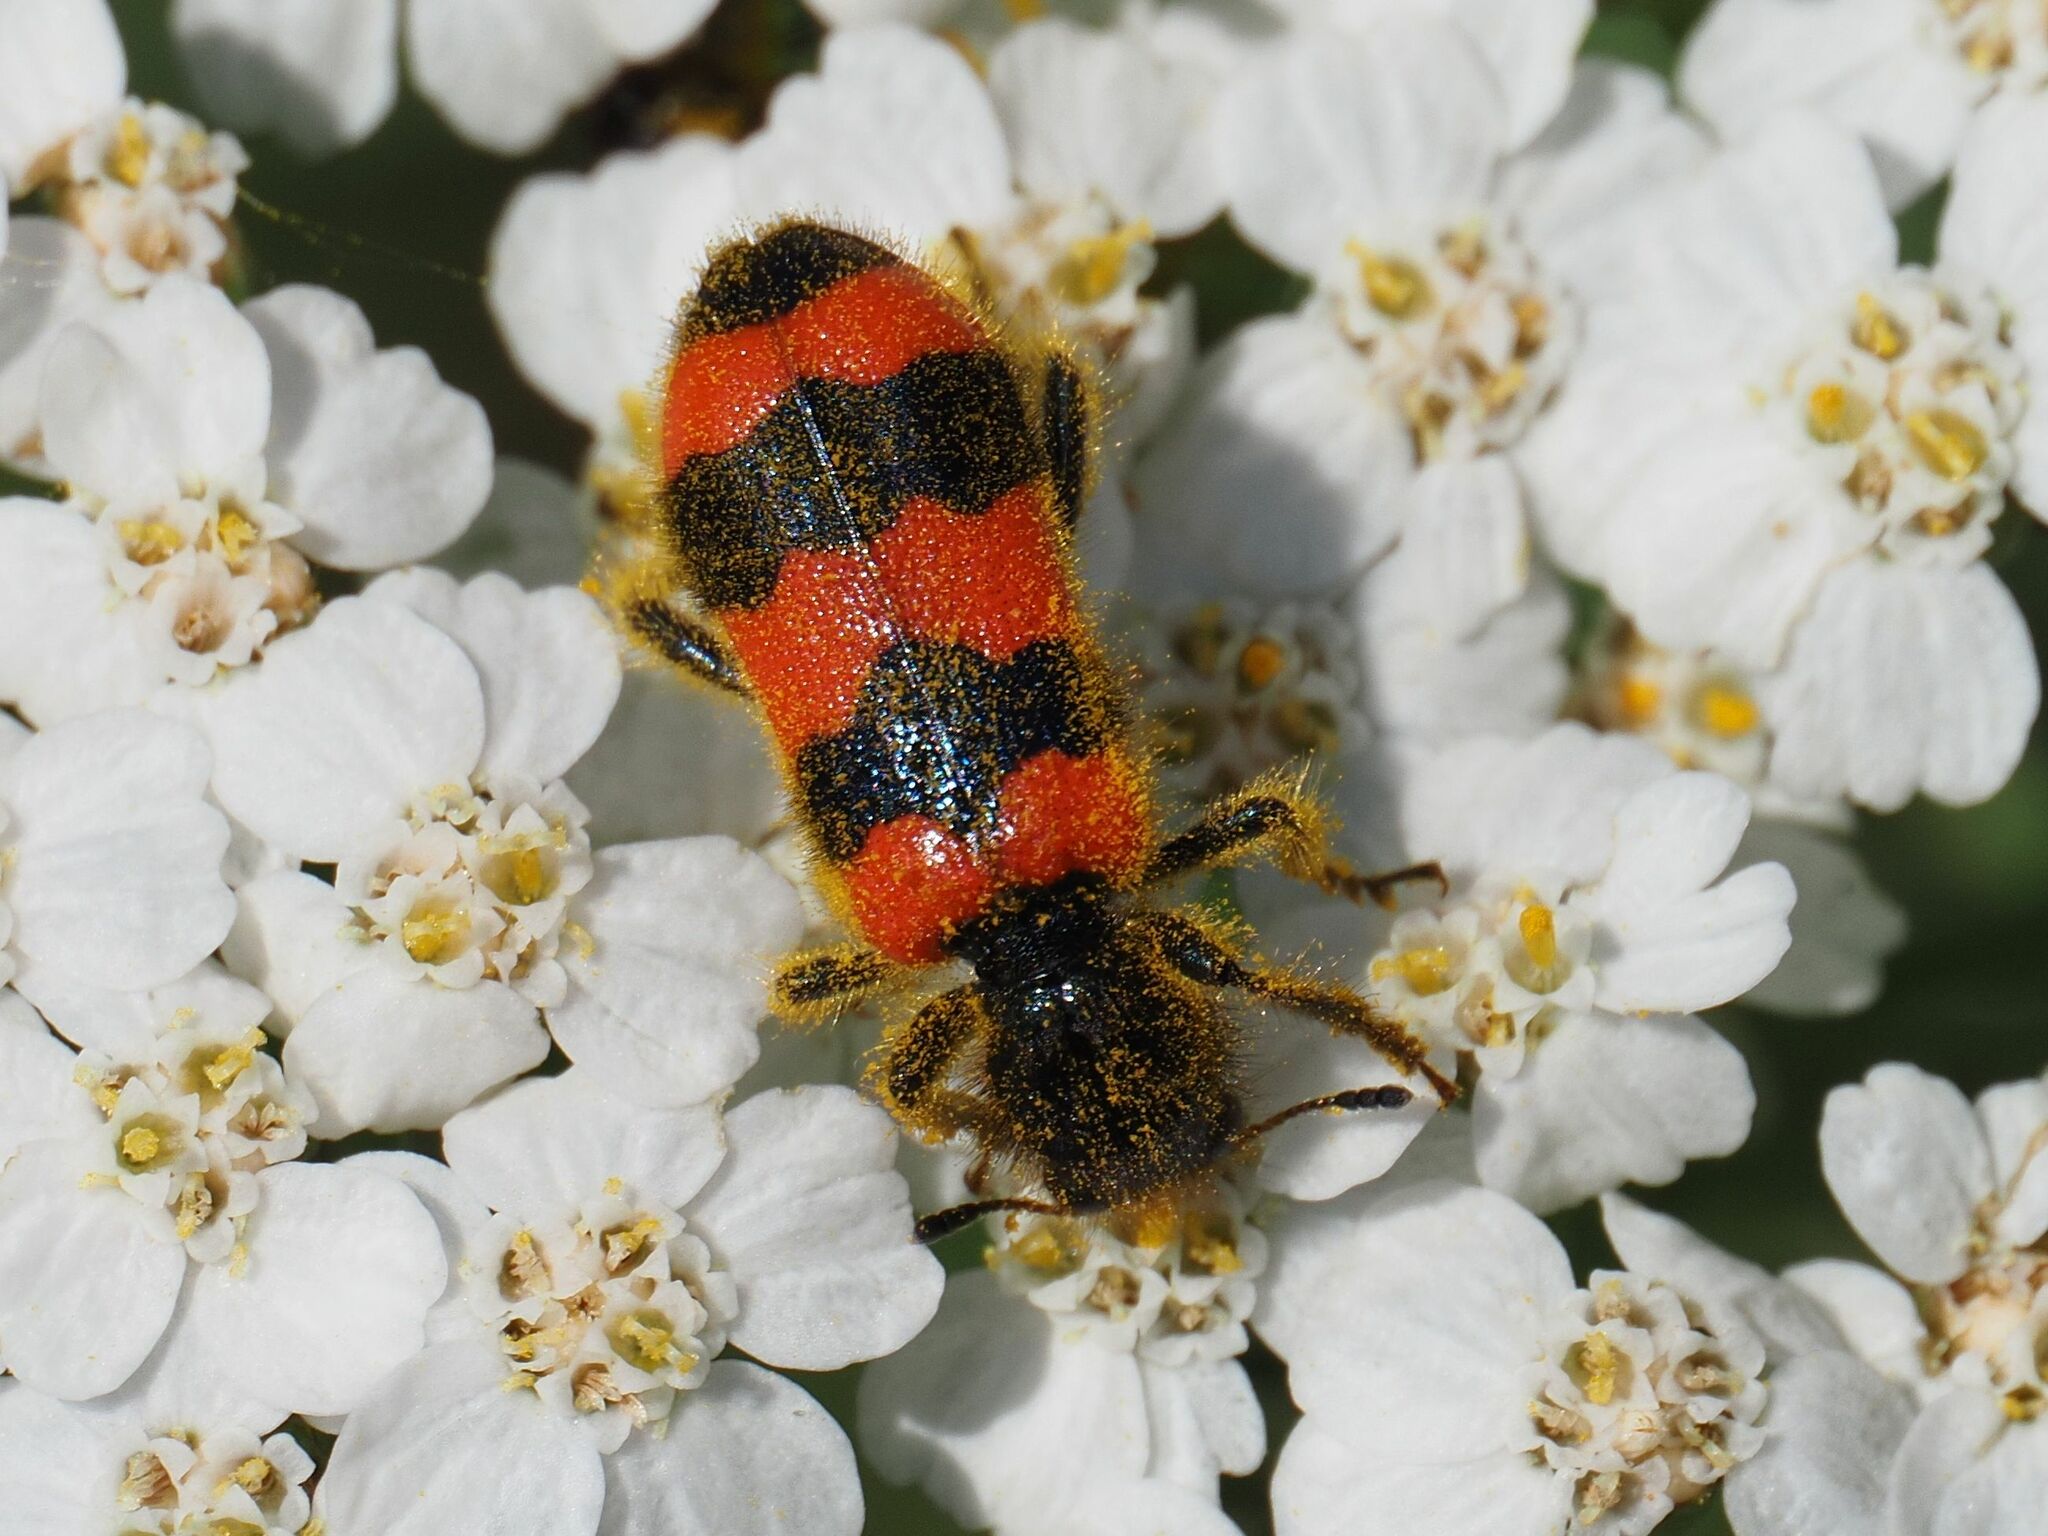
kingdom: Animalia
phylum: Arthropoda
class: Insecta
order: Coleoptera
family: Cleridae
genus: Trichodes
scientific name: Trichodes apiarius
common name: Bee-eating beetle
